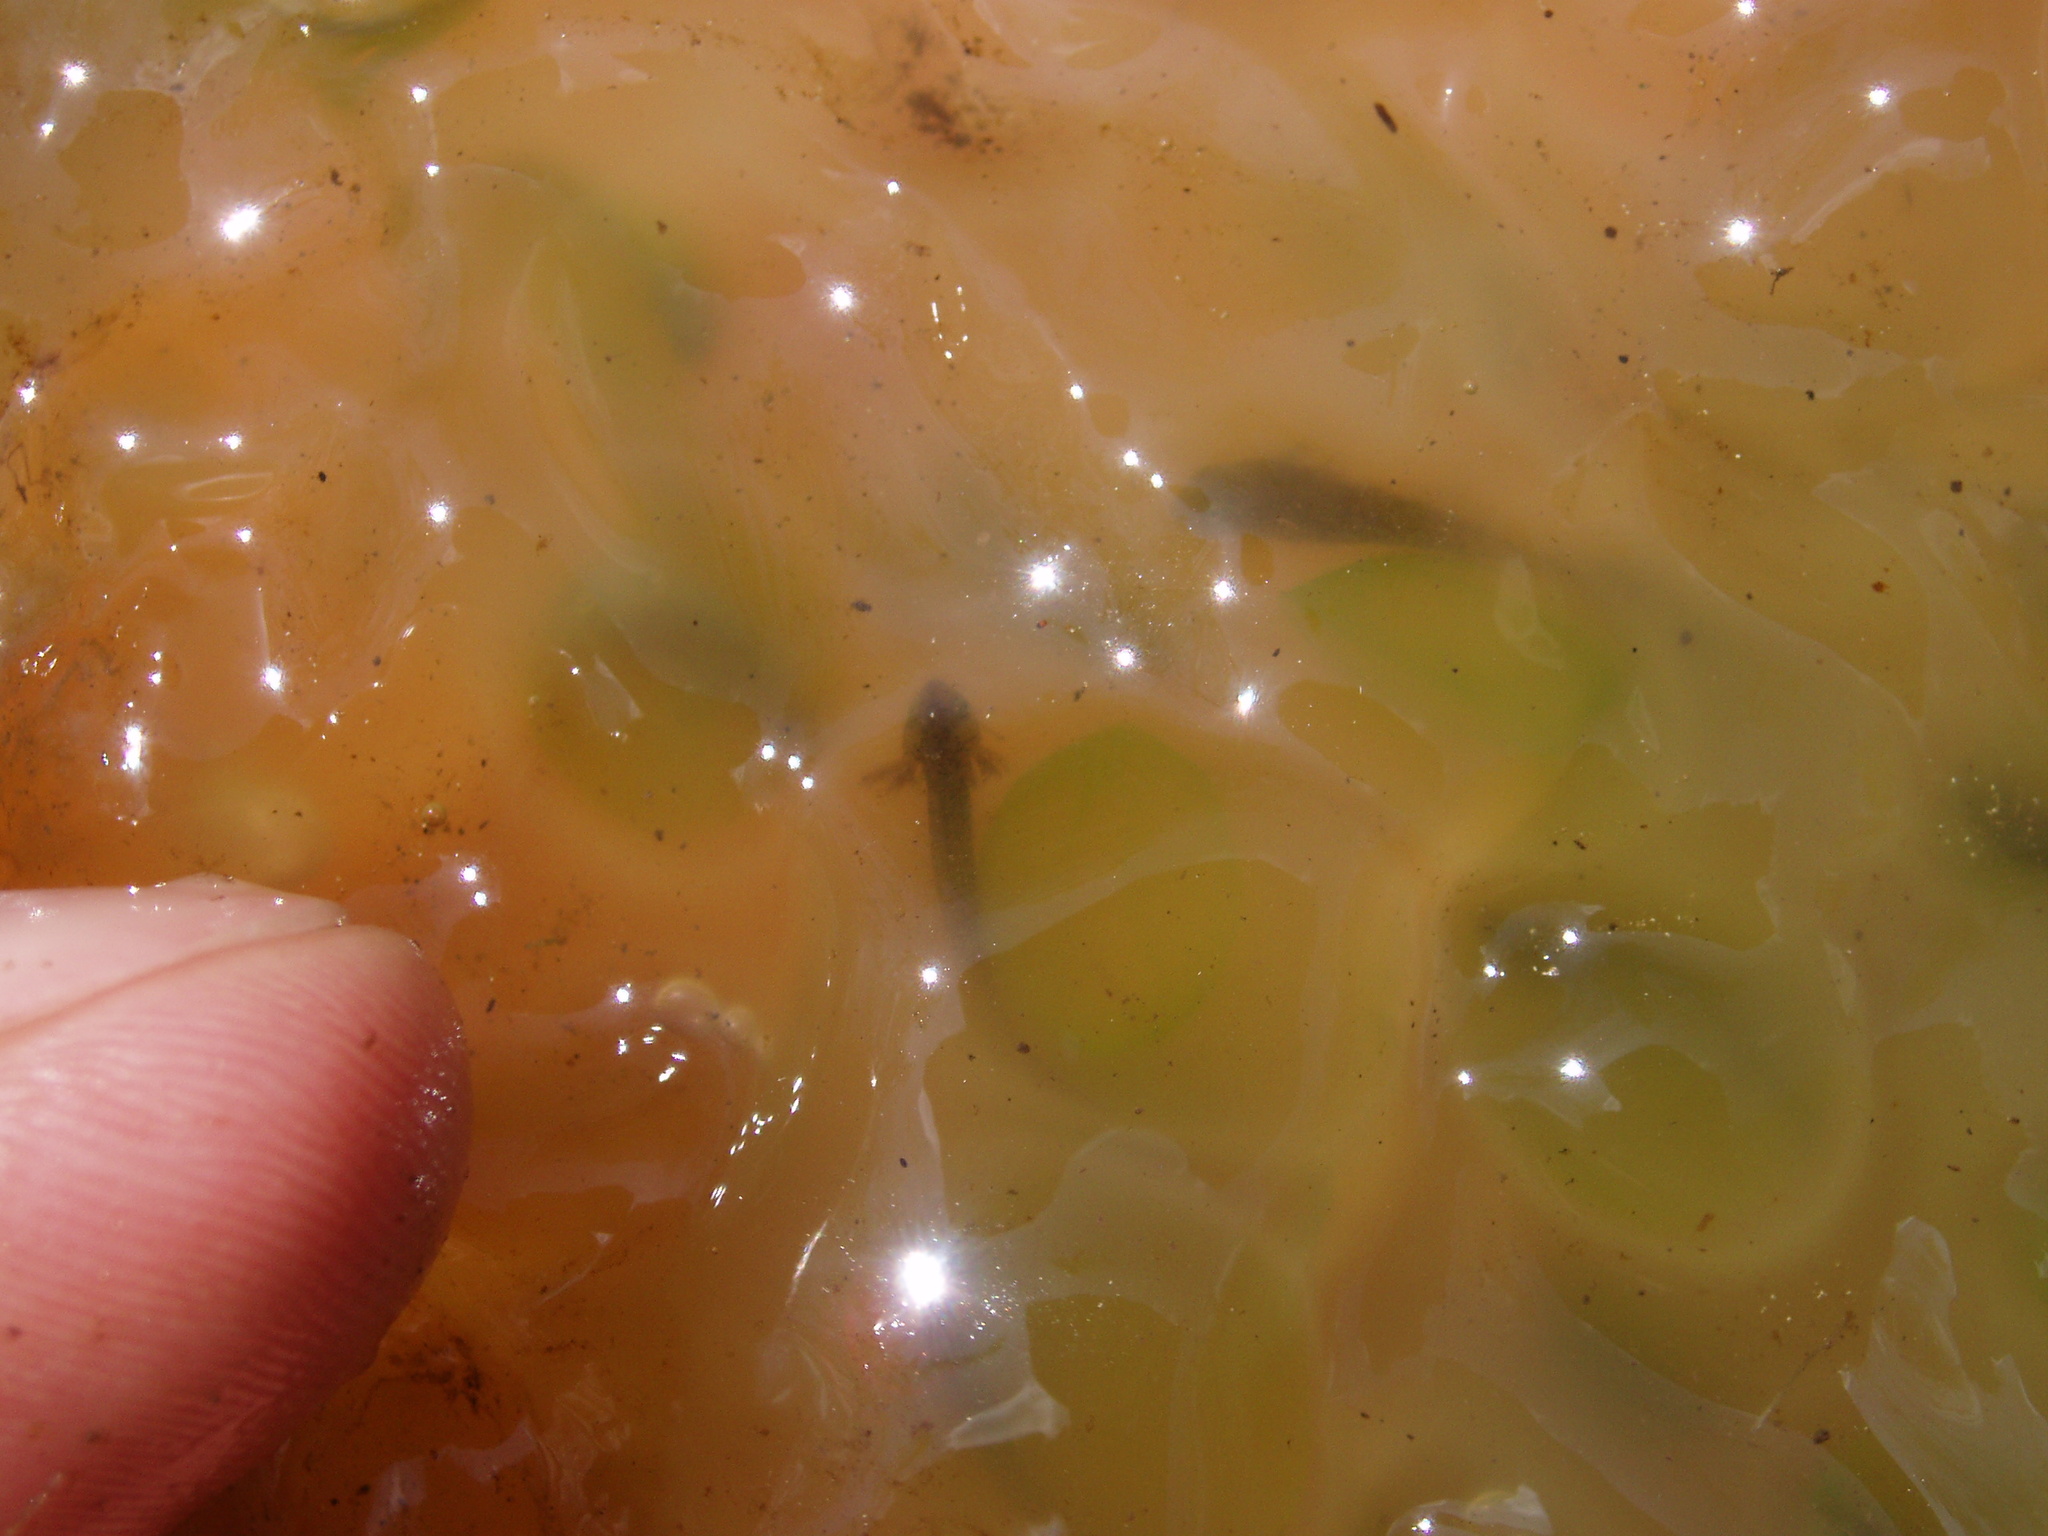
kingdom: Animalia
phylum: Chordata
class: Amphibia
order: Caudata
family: Ambystomatidae
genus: Ambystoma
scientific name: Ambystoma maculatum
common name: Spotted salamander
